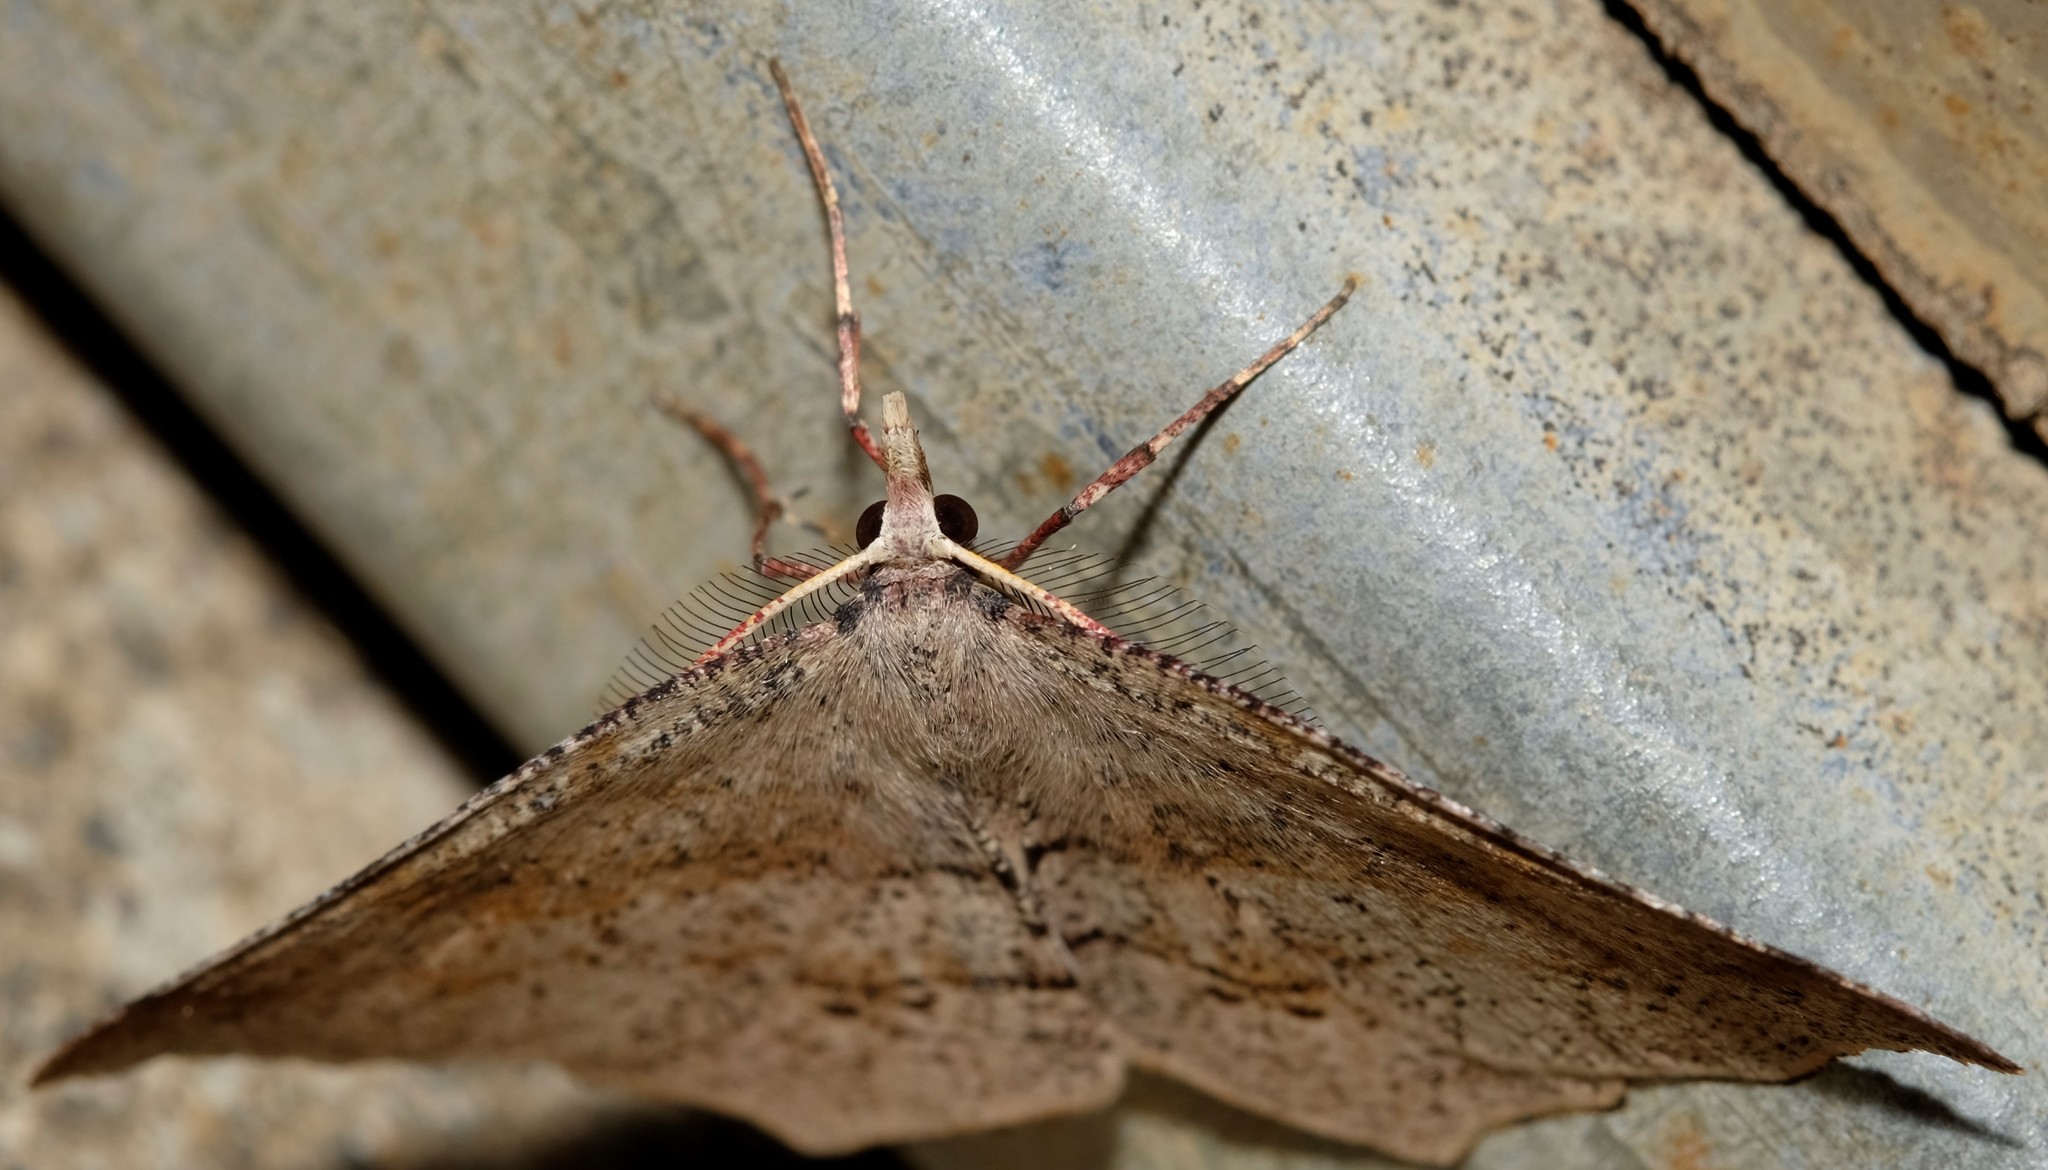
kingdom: Animalia
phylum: Arthropoda
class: Insecta
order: Lepidoptera
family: Geometridae
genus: Rhinodia
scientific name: Rhinodia rostraria
